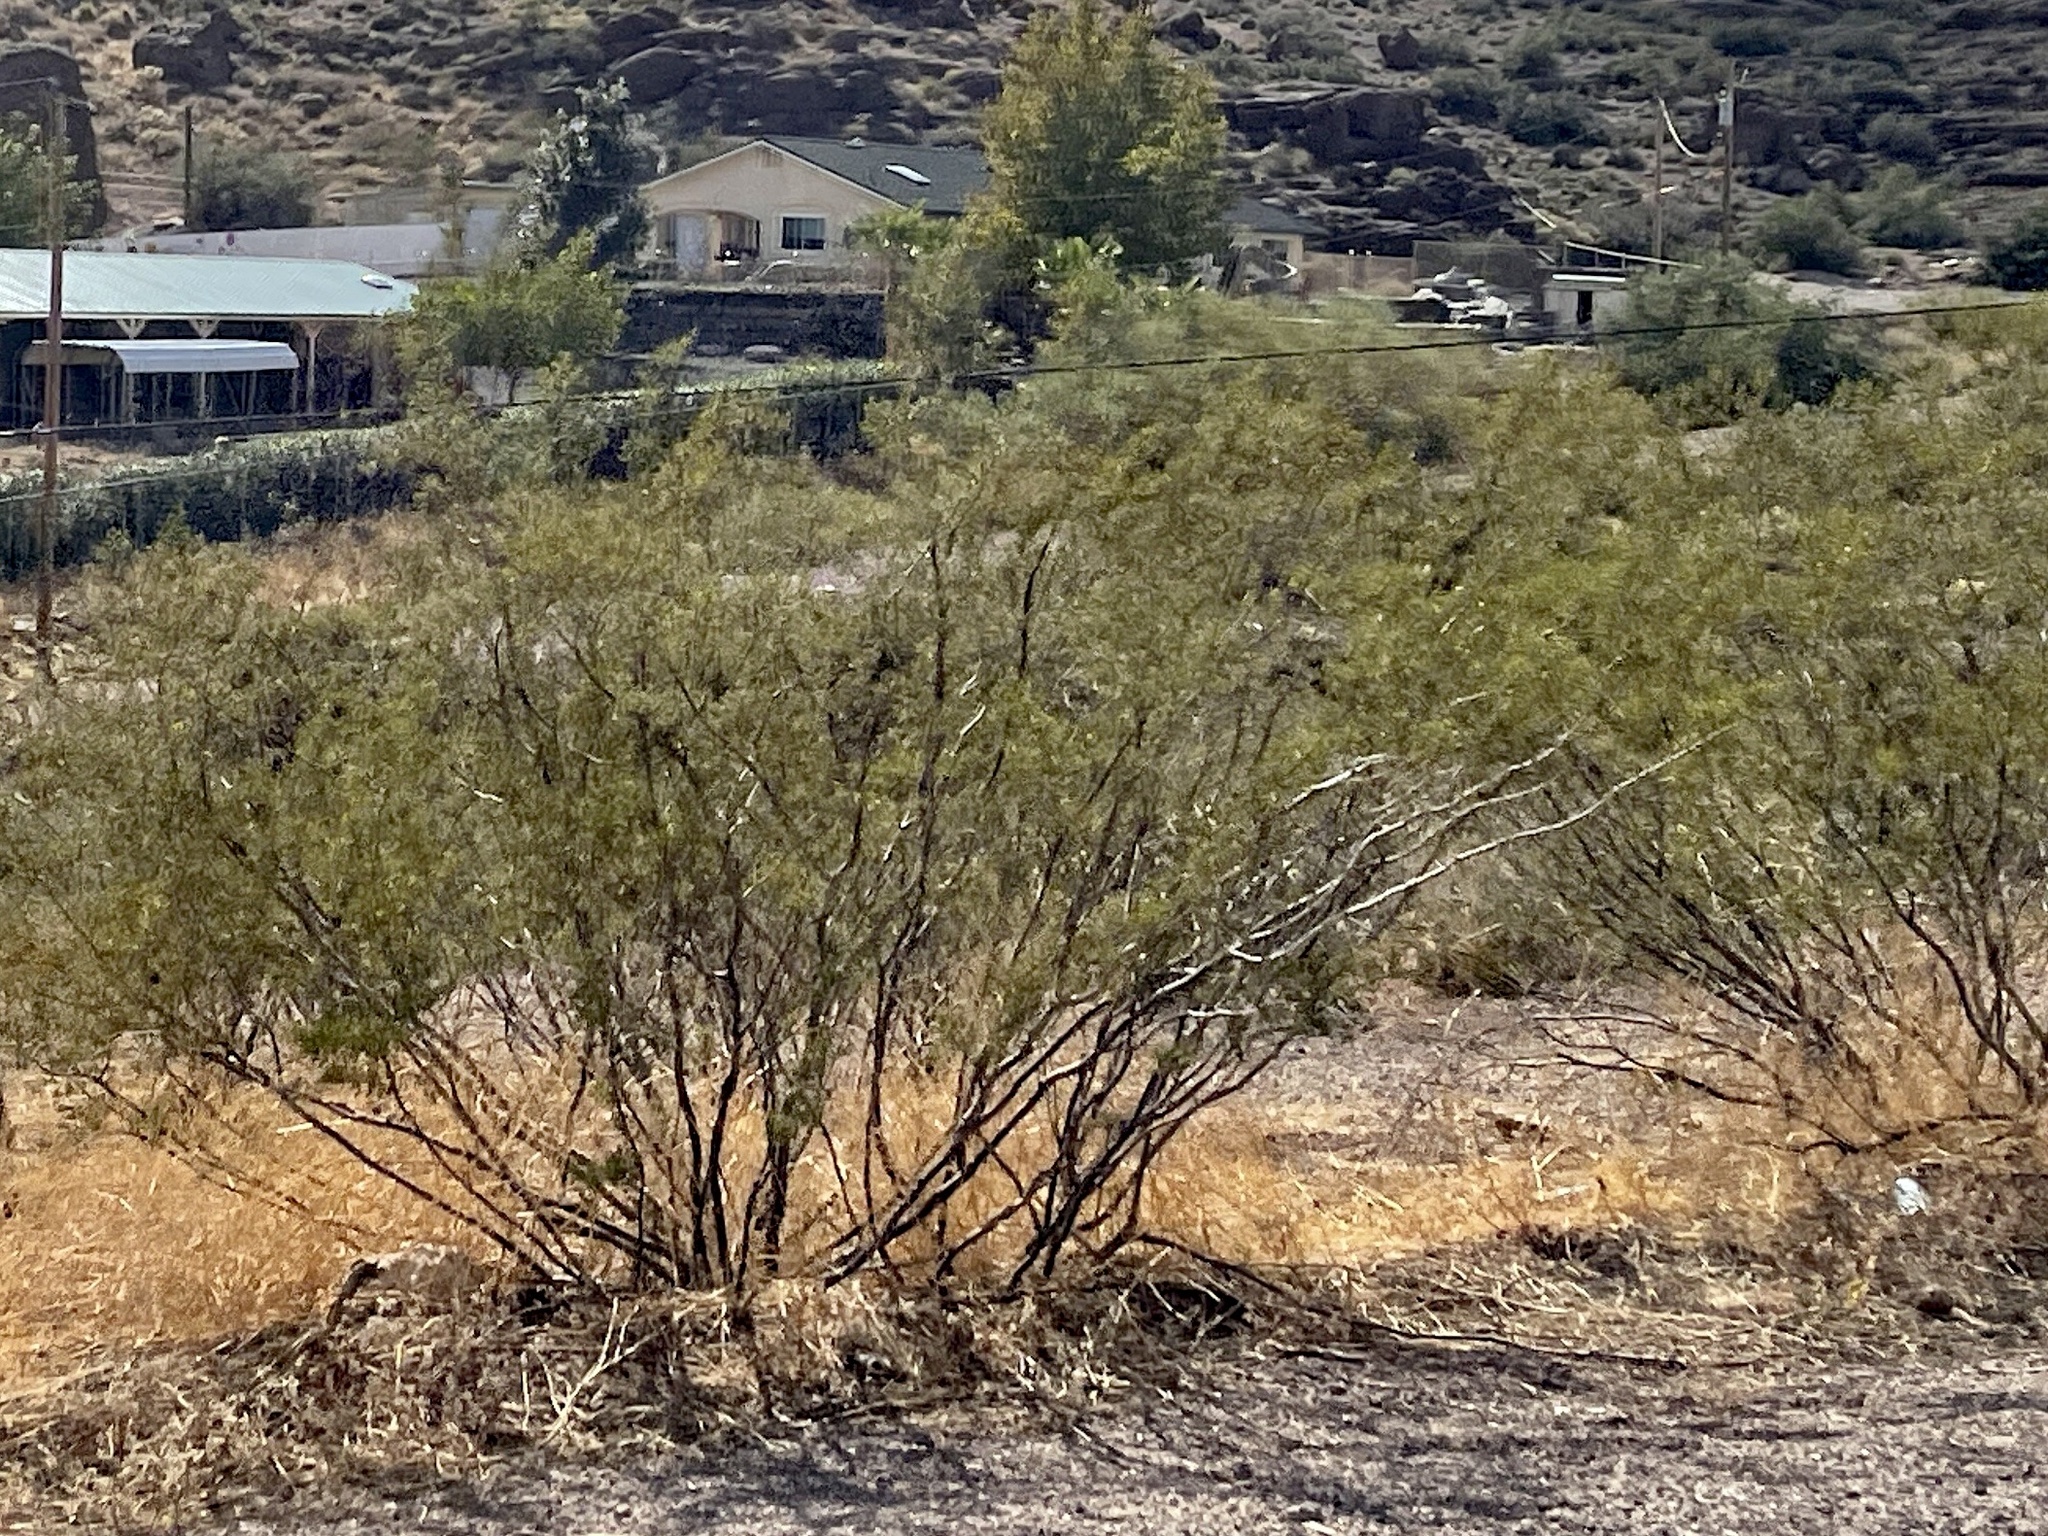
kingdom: Plantae
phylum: Tracheophyta
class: Magnoliopsida
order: Zygophyllales
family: Zygophyllaceae
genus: Larrea
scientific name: Larrea tridentata
